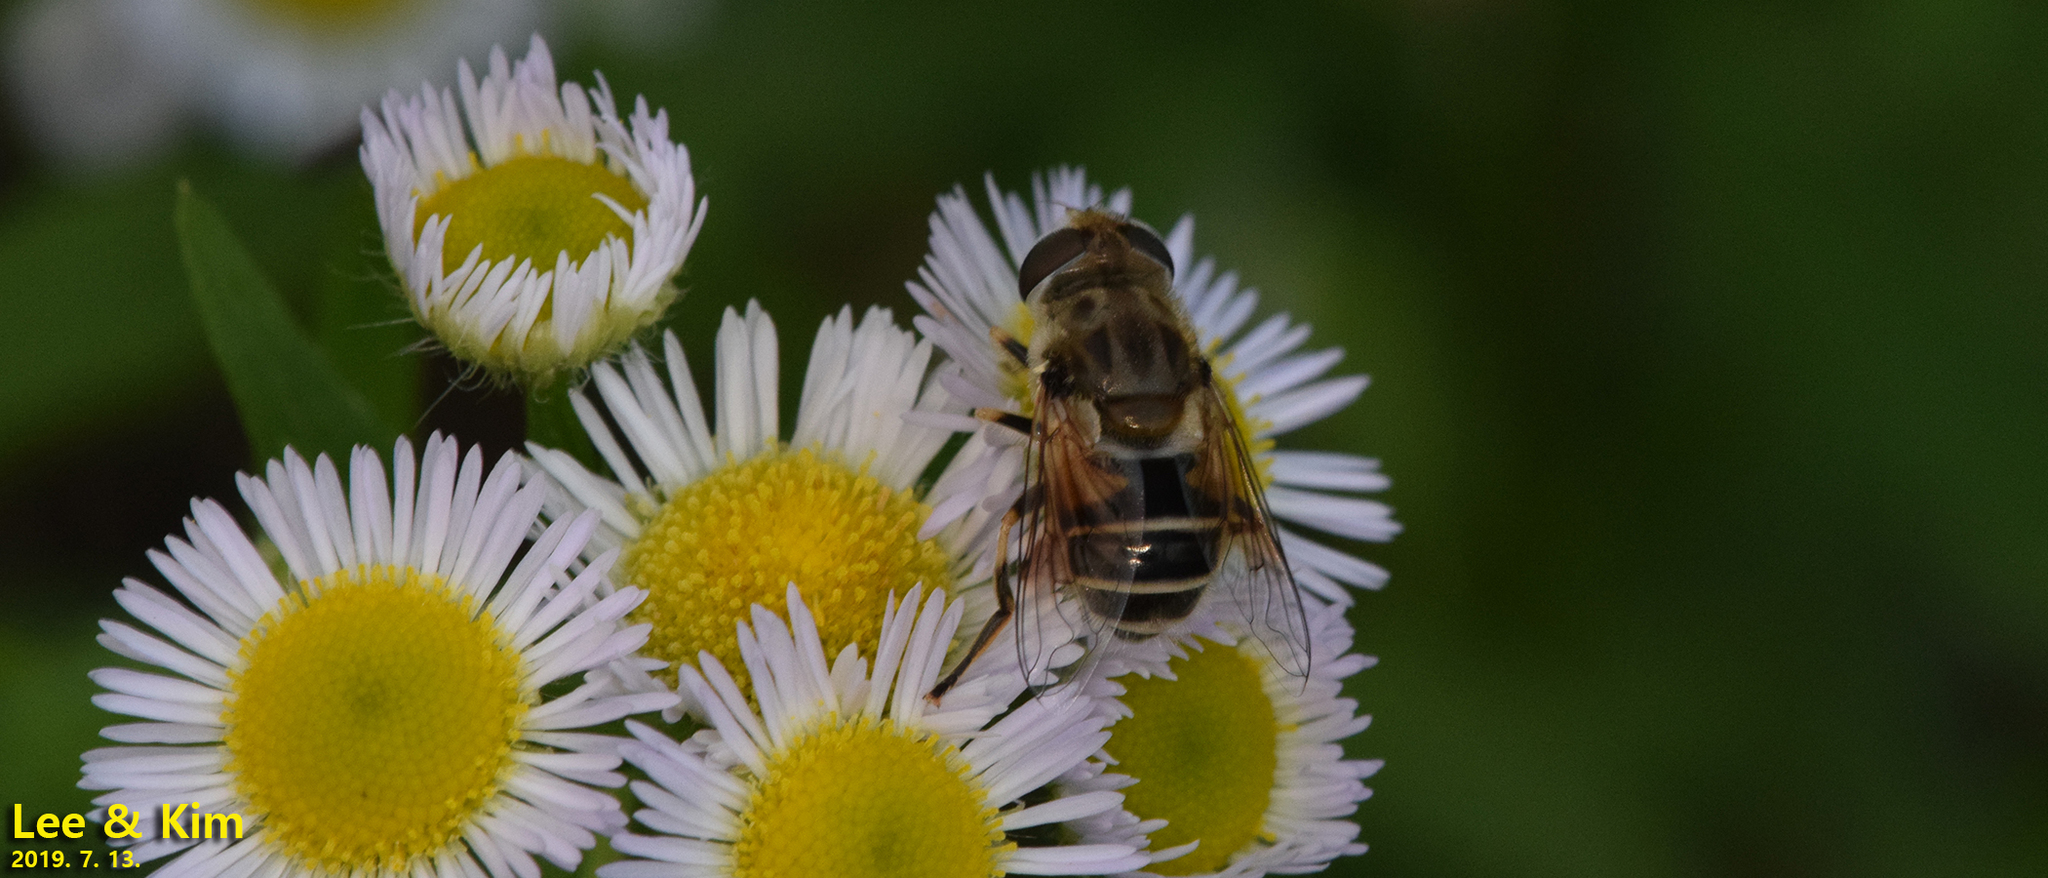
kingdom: Animalia
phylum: Arthropoda
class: Insecta
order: Diptera
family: Syrphidae
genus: Eristalis
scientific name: Eristalis arbustorum
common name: Hover fly
